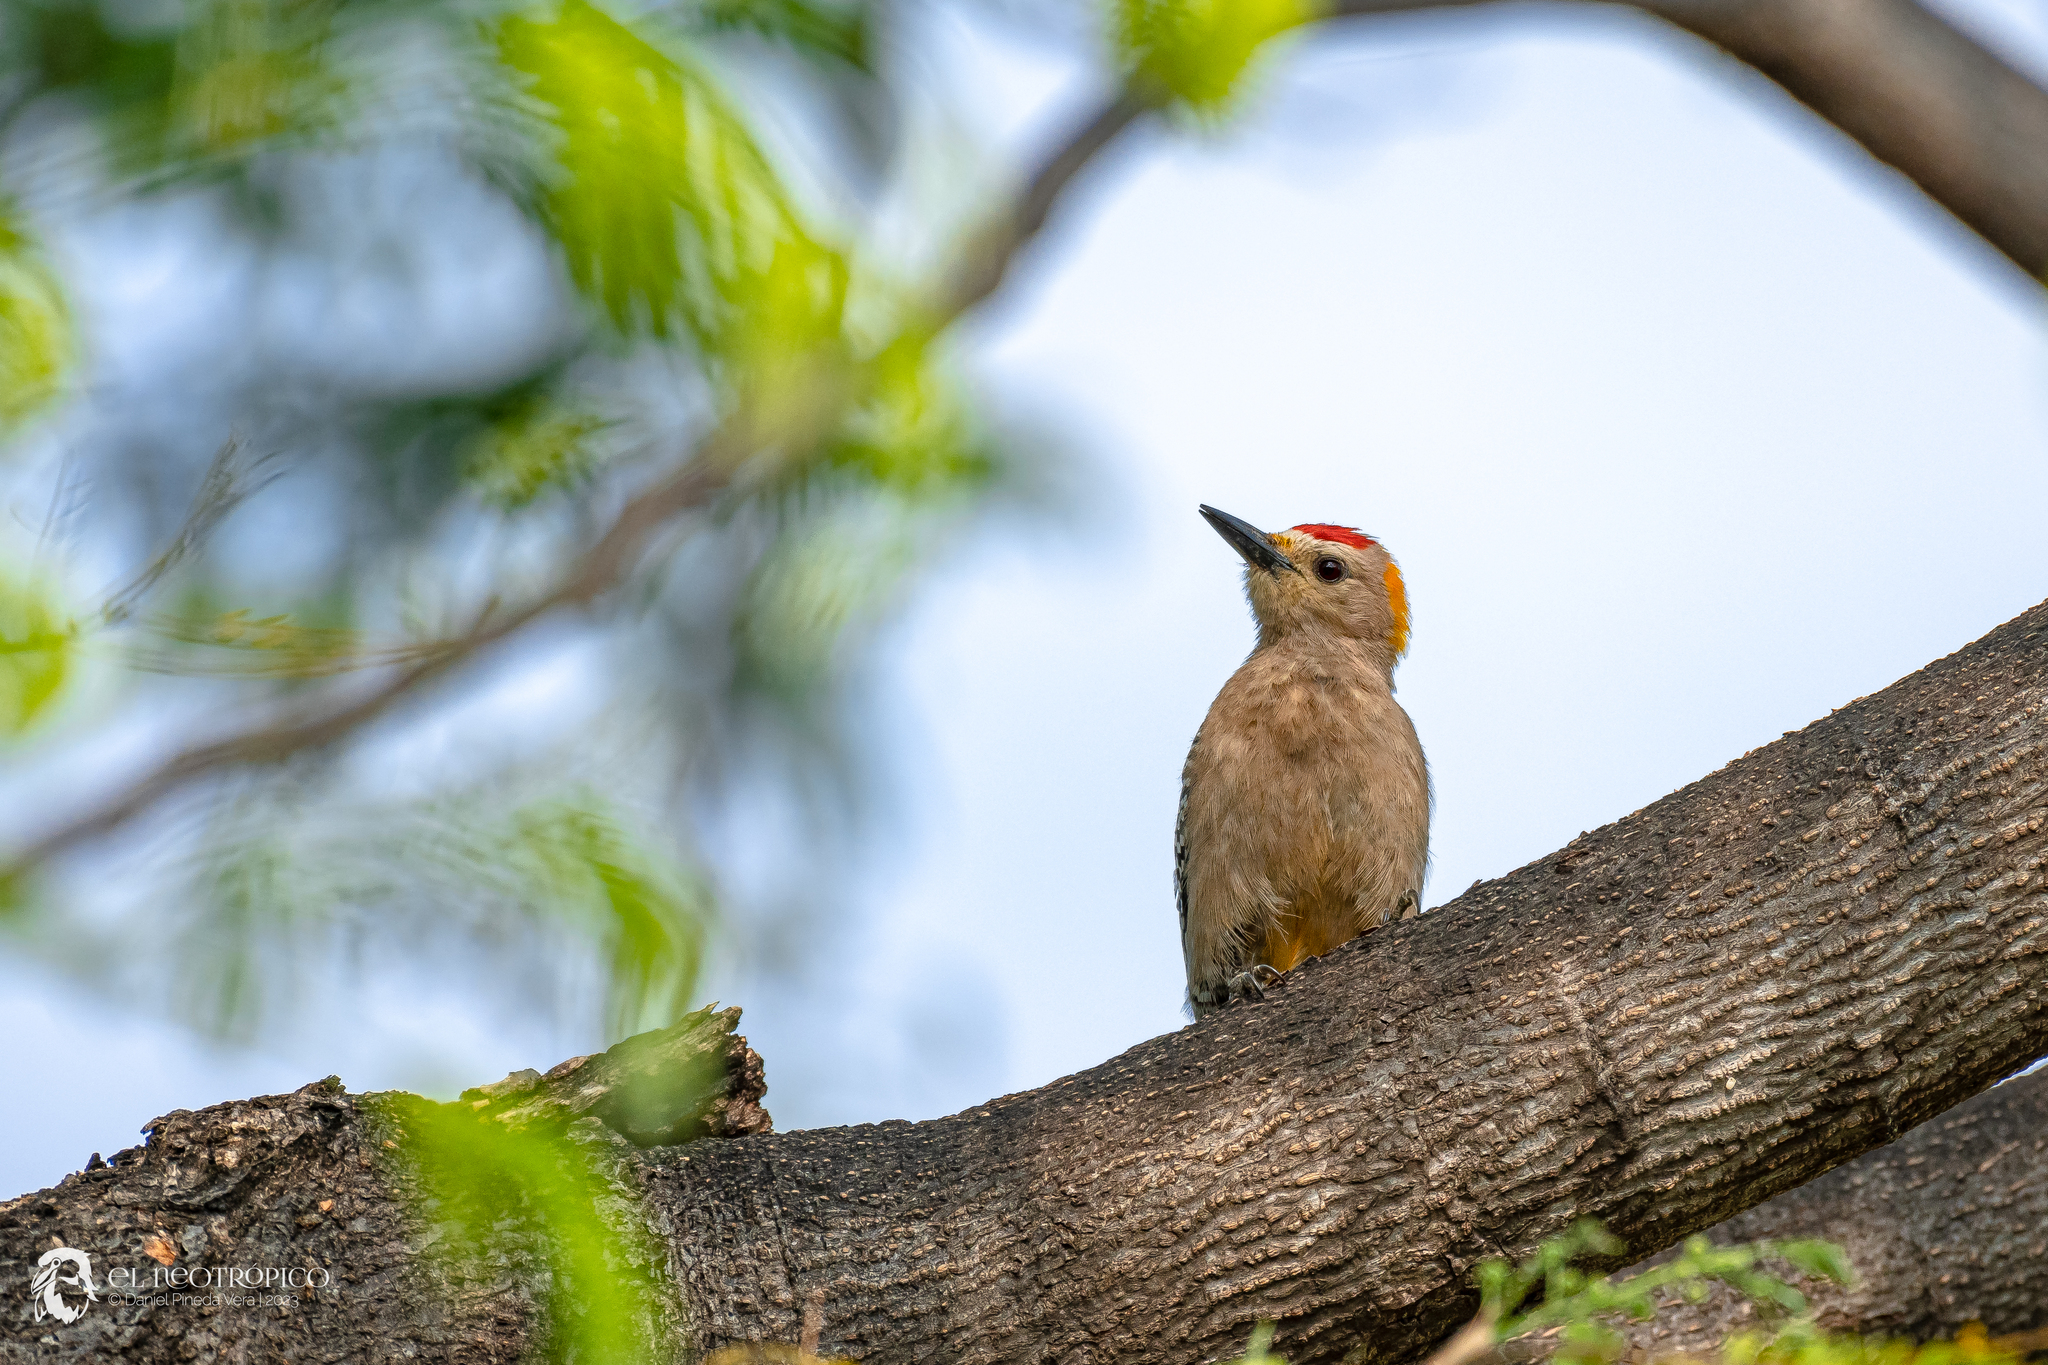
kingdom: Animalia
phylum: Chordata
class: Aves
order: Piciformes
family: Picidae
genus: Melanerpes
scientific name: Melanerpes aurifrons
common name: Golden-fronted woodpecker
